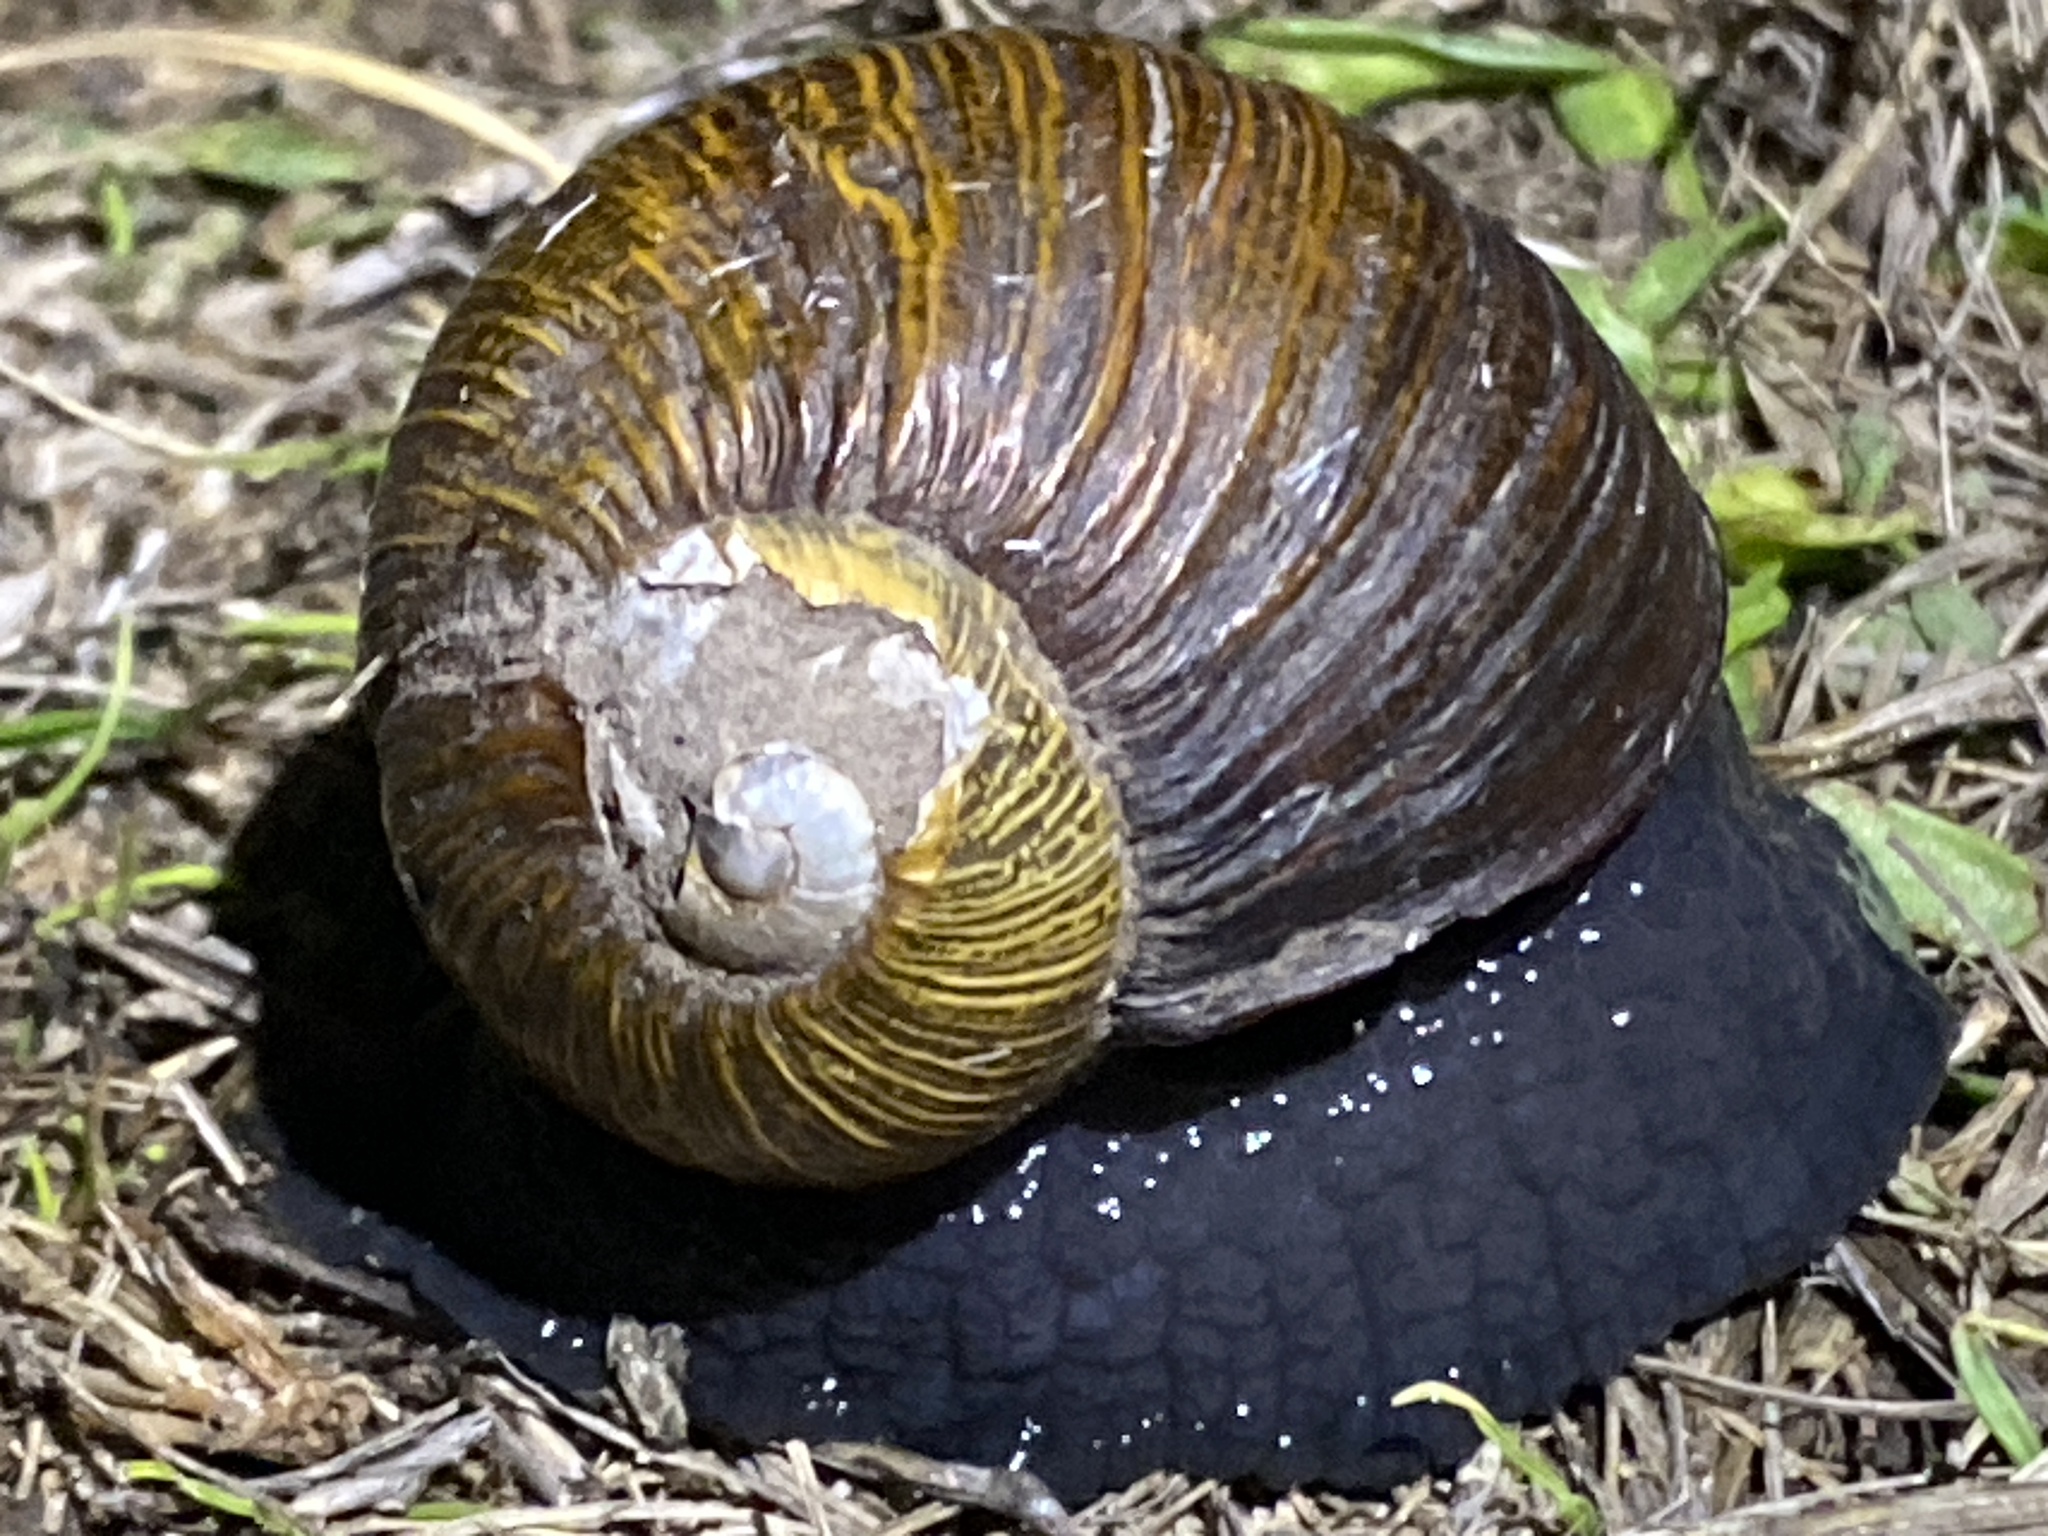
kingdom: Animalia
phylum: Mollusca
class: Gastropoda
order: Stylommatophora
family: Helicidae
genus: Cantareus
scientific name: Cantareus apertus
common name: Green gardensnail
